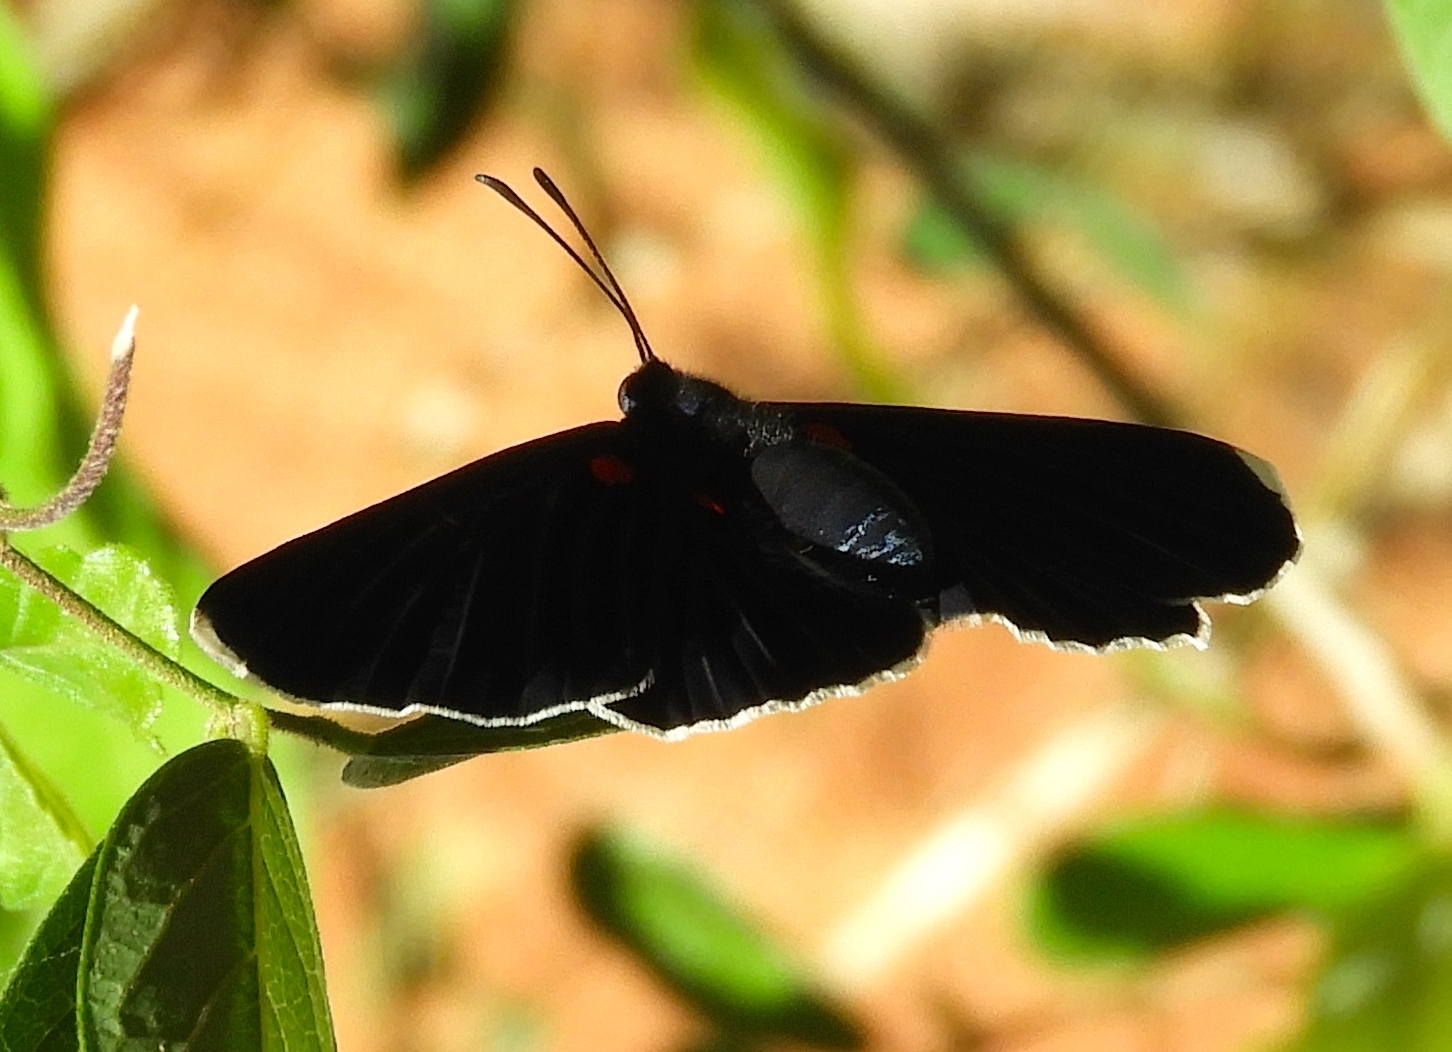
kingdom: Animalia
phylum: Arthropoda
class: Insecta
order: Lepidoptera
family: Lycaenidae
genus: Melanis
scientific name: Melanis
